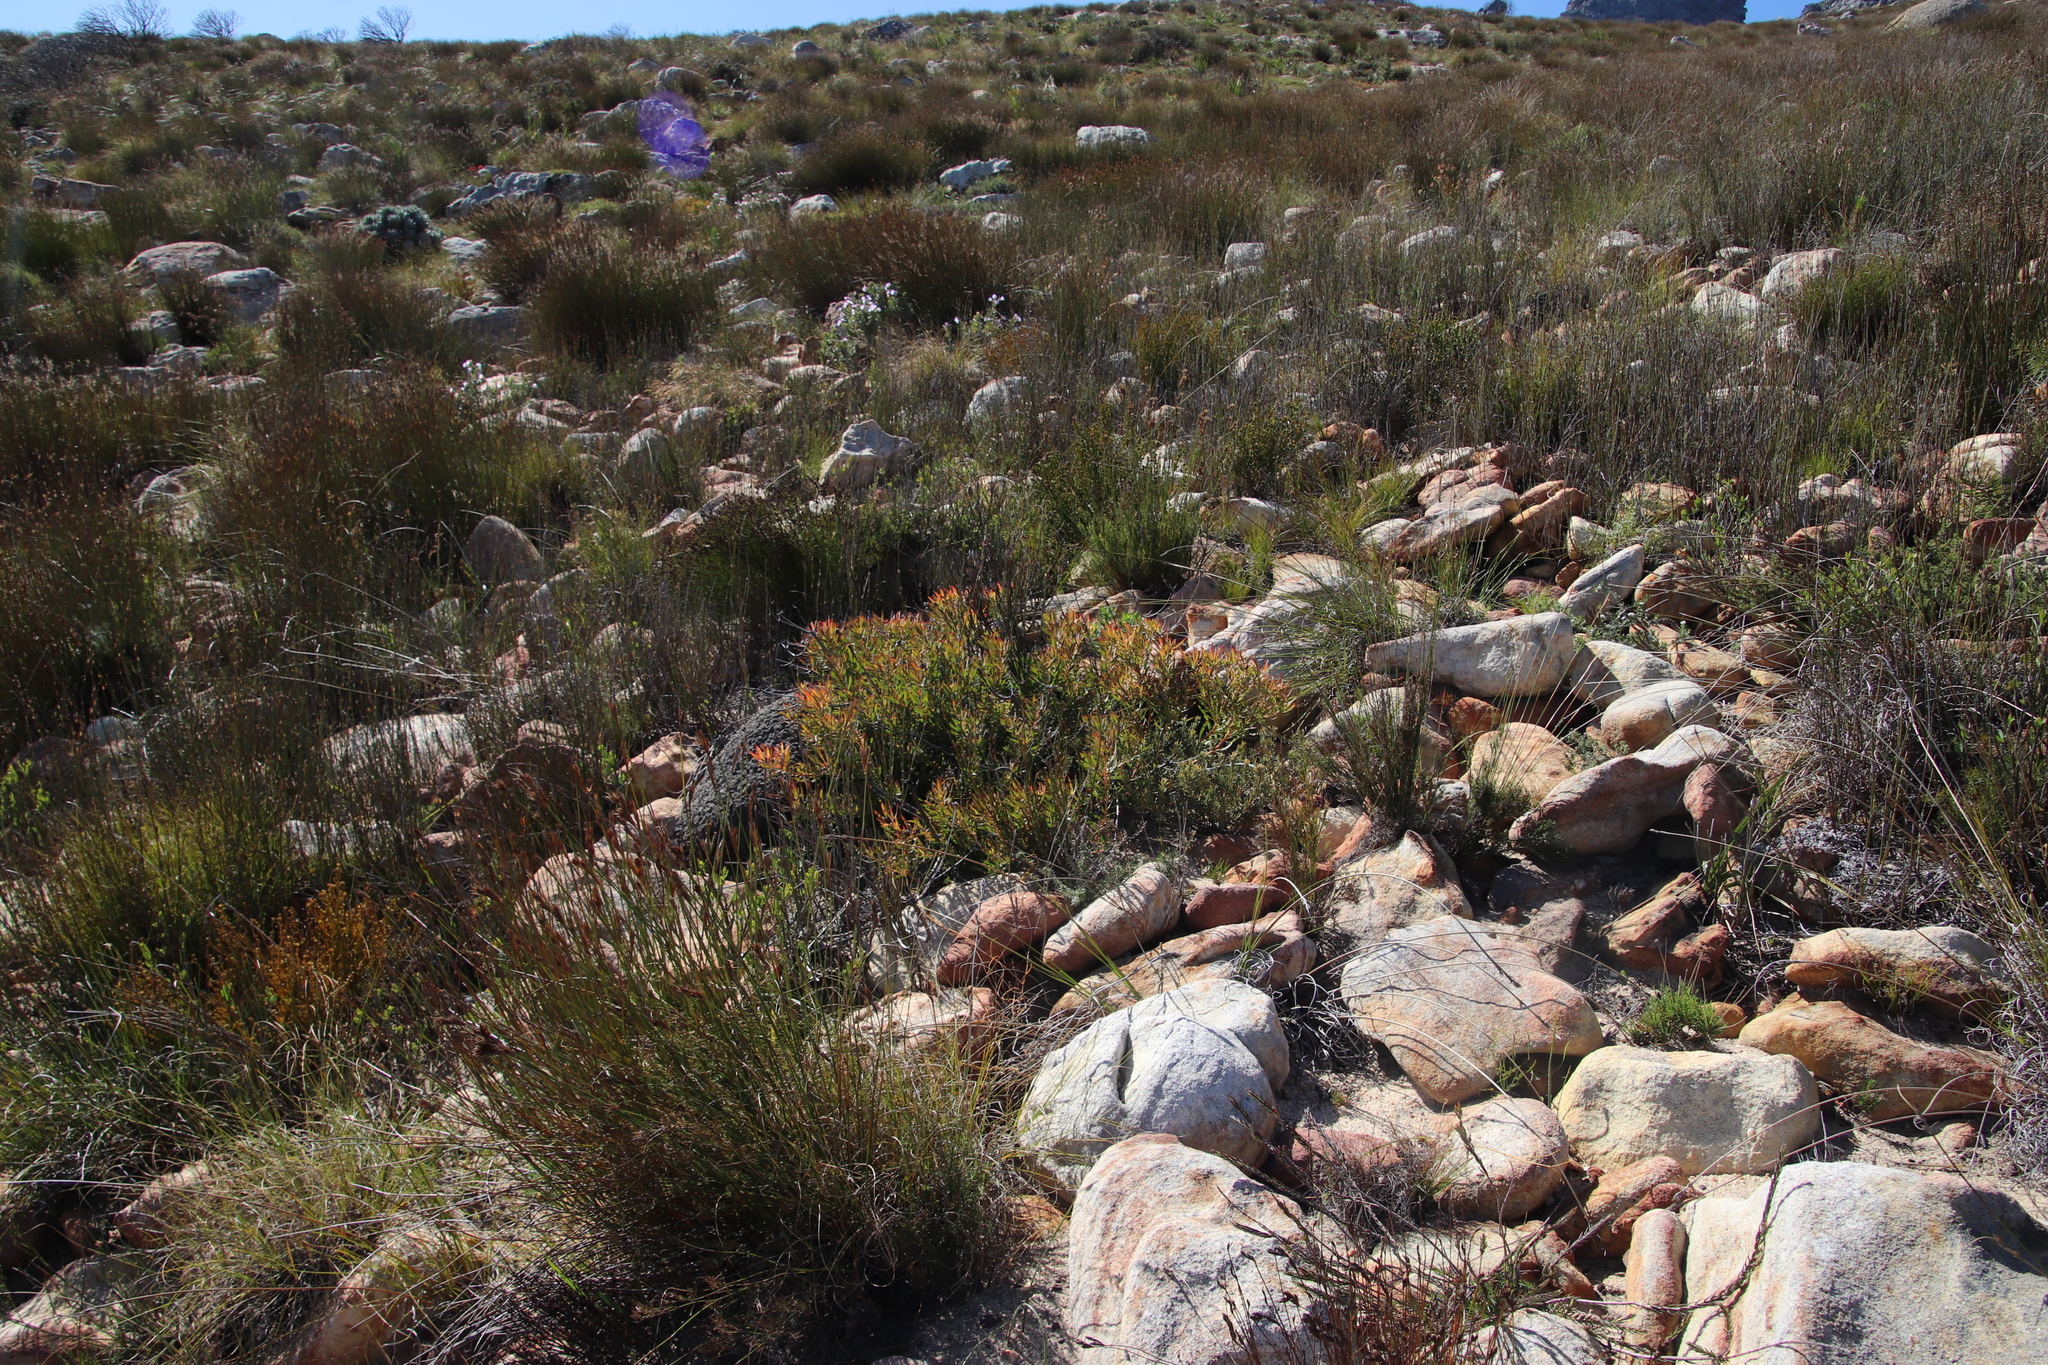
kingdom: Plantae
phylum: Tracheophyta
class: Magnoliopsida
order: Proteales
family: Proteaceae
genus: Leucadendron
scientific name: Leucadendron salignum
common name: Common sunshine conebush
